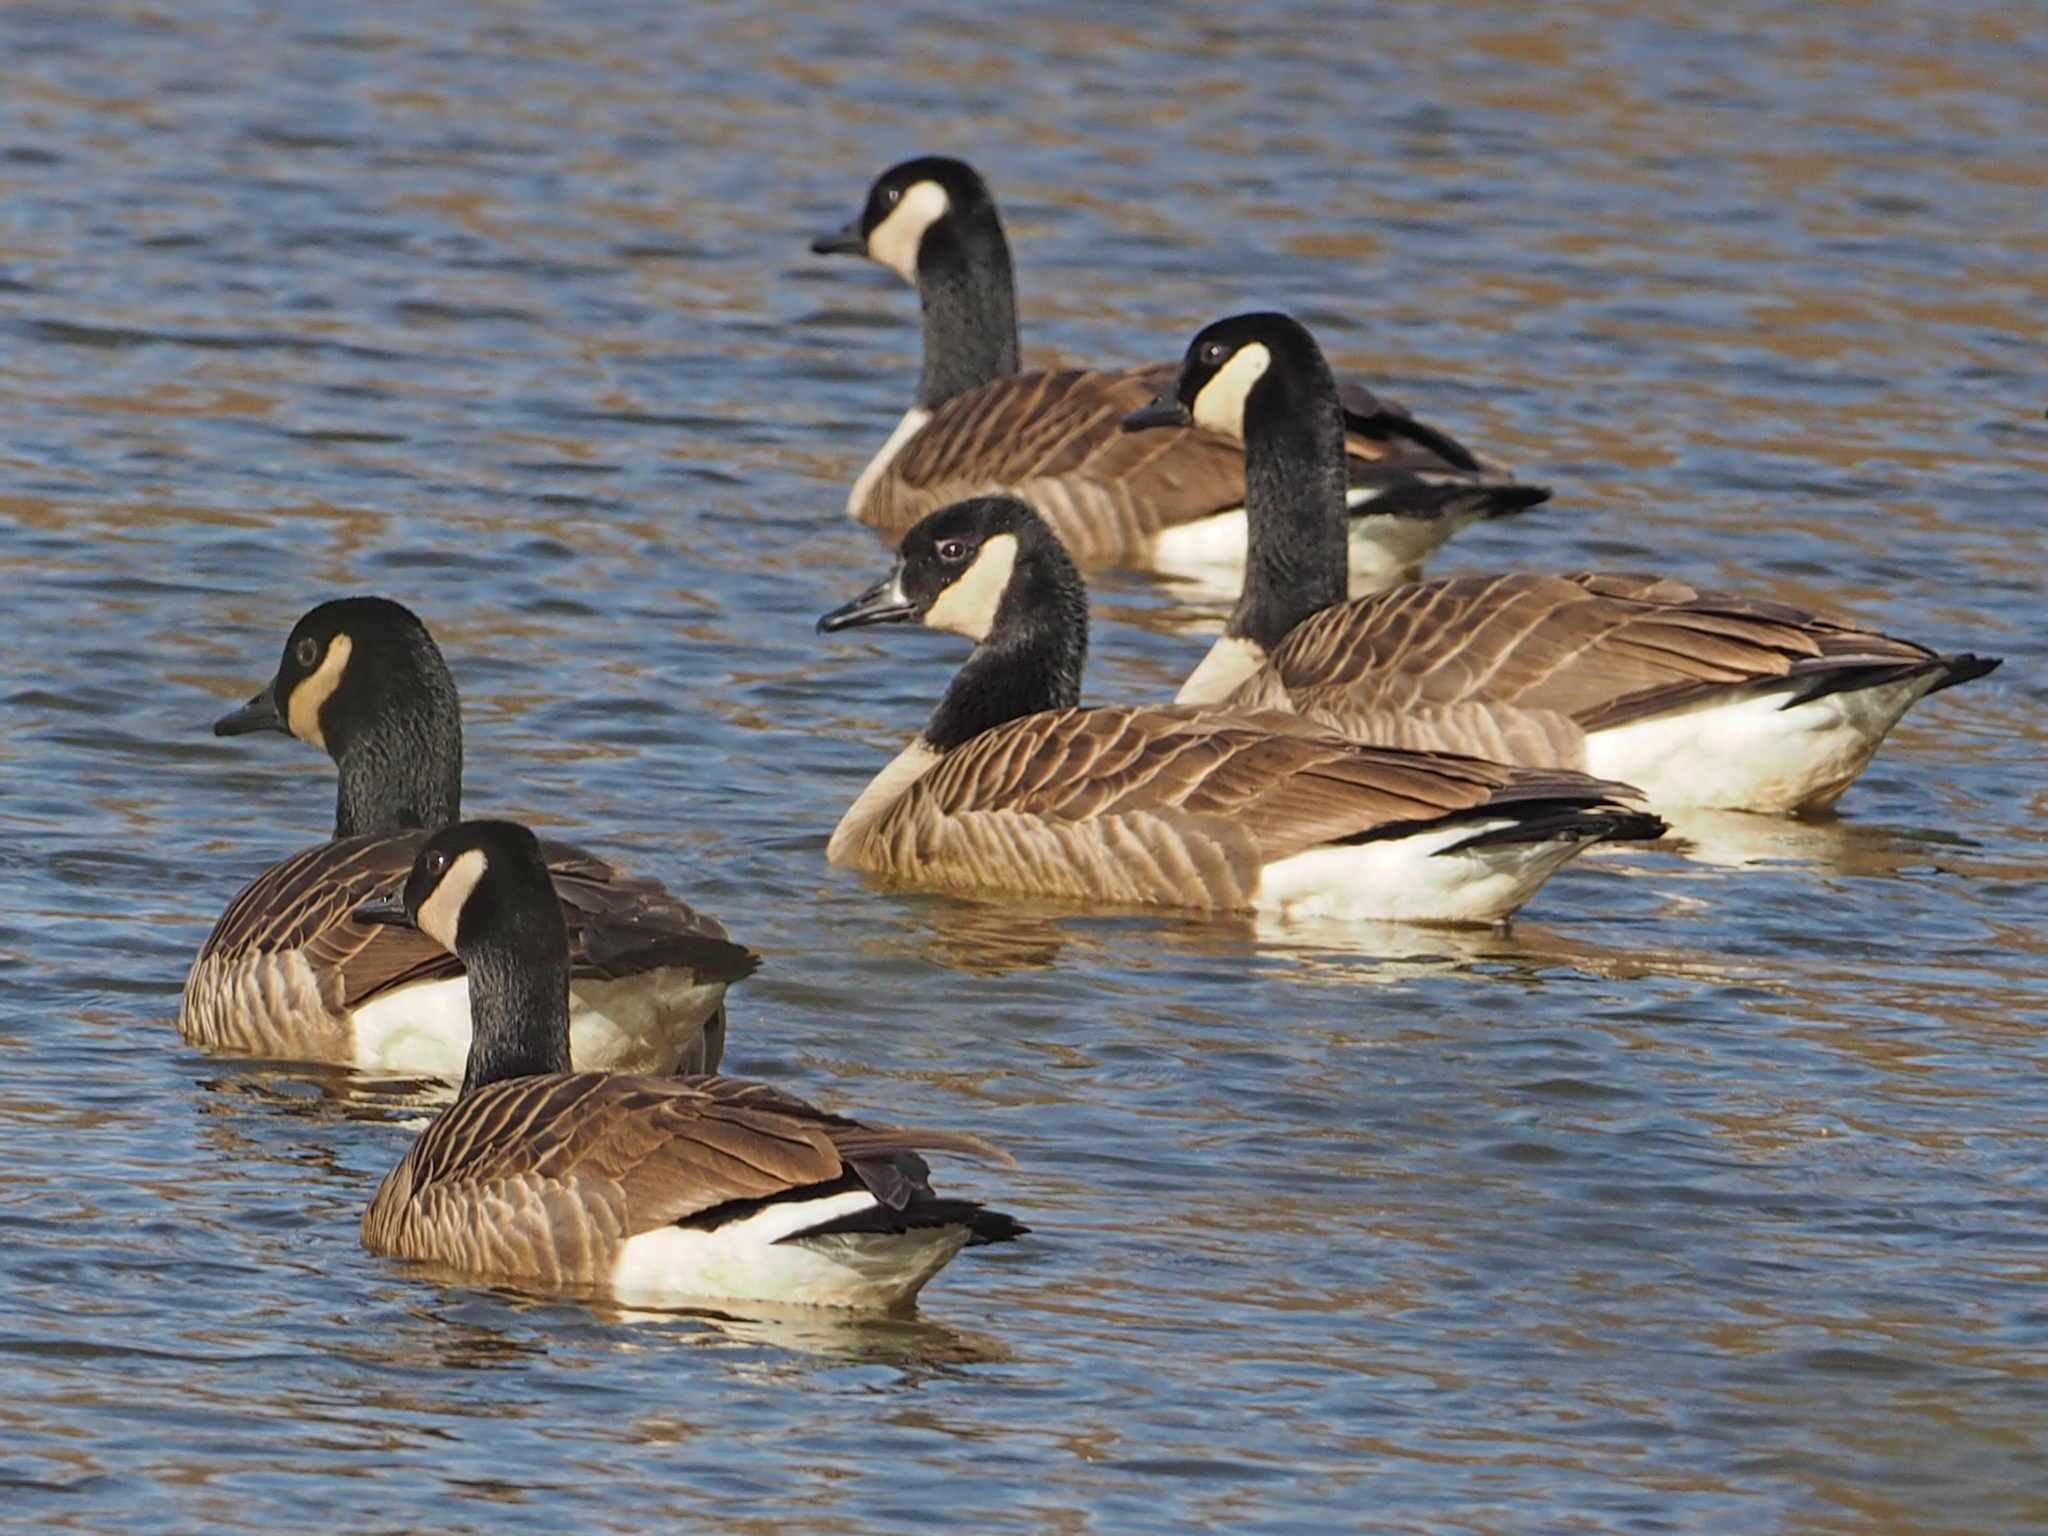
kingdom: Animalia
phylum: Chordata
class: Aves
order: Anseriformes
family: Anatidae
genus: Branta
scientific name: Branta canadensis
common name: Canada goose
